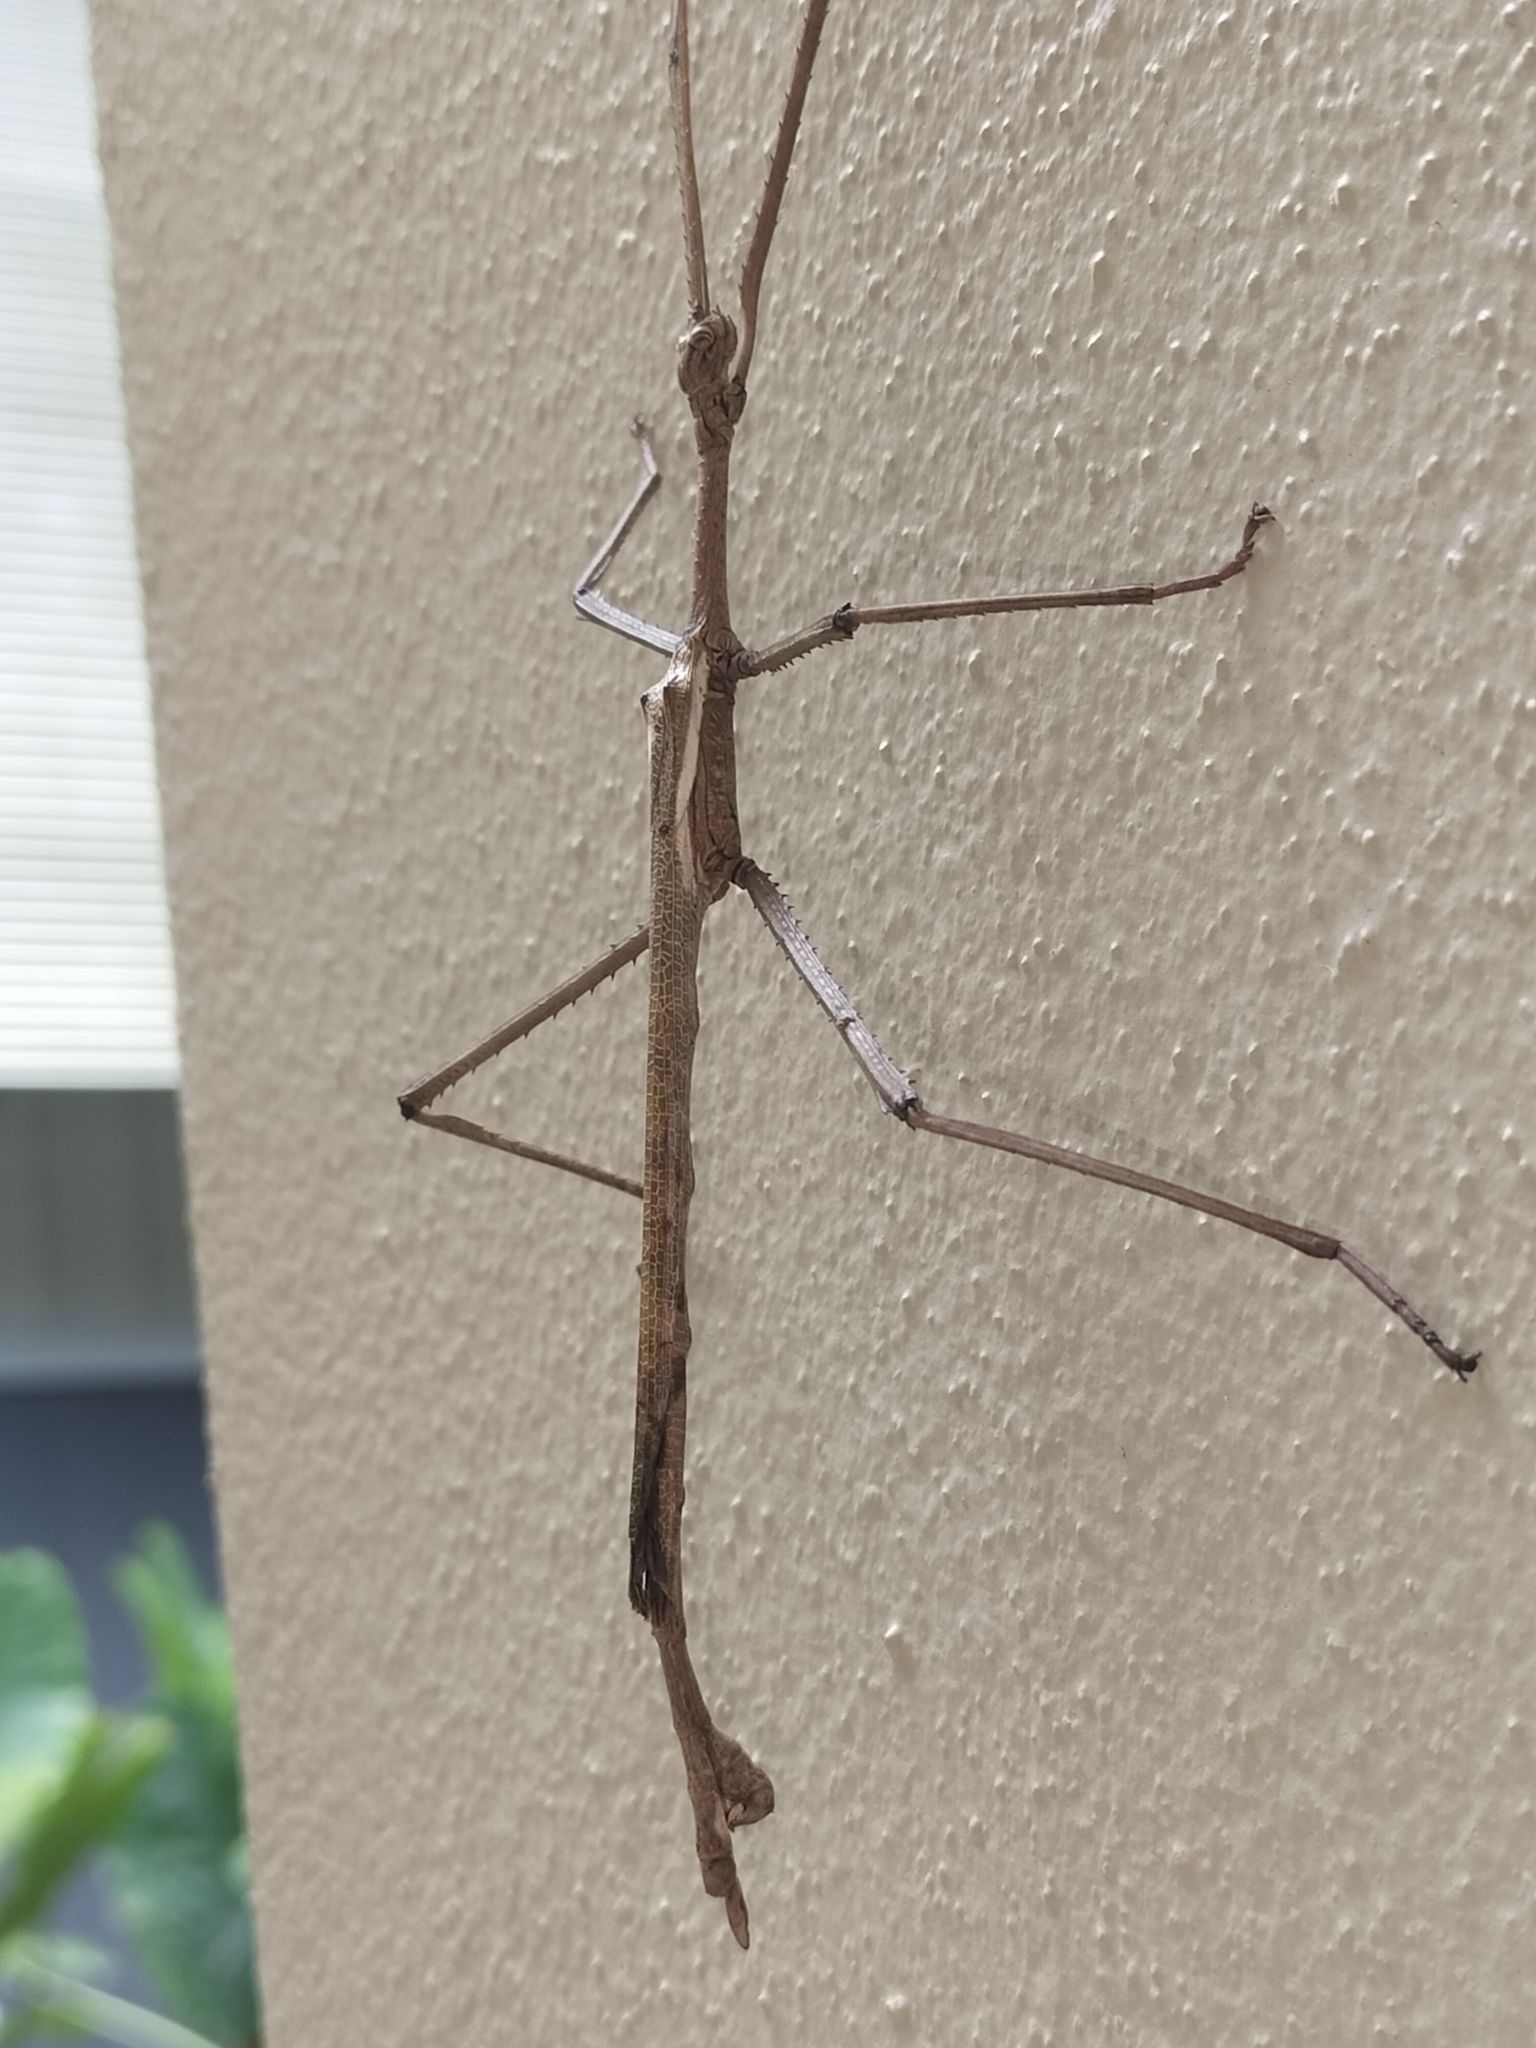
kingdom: Animalia
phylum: Arthropoda
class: Insecta
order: Phasmida
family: Phasmatidae
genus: Anchiale
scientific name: Anchiale briareus
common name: Strong stick insect
